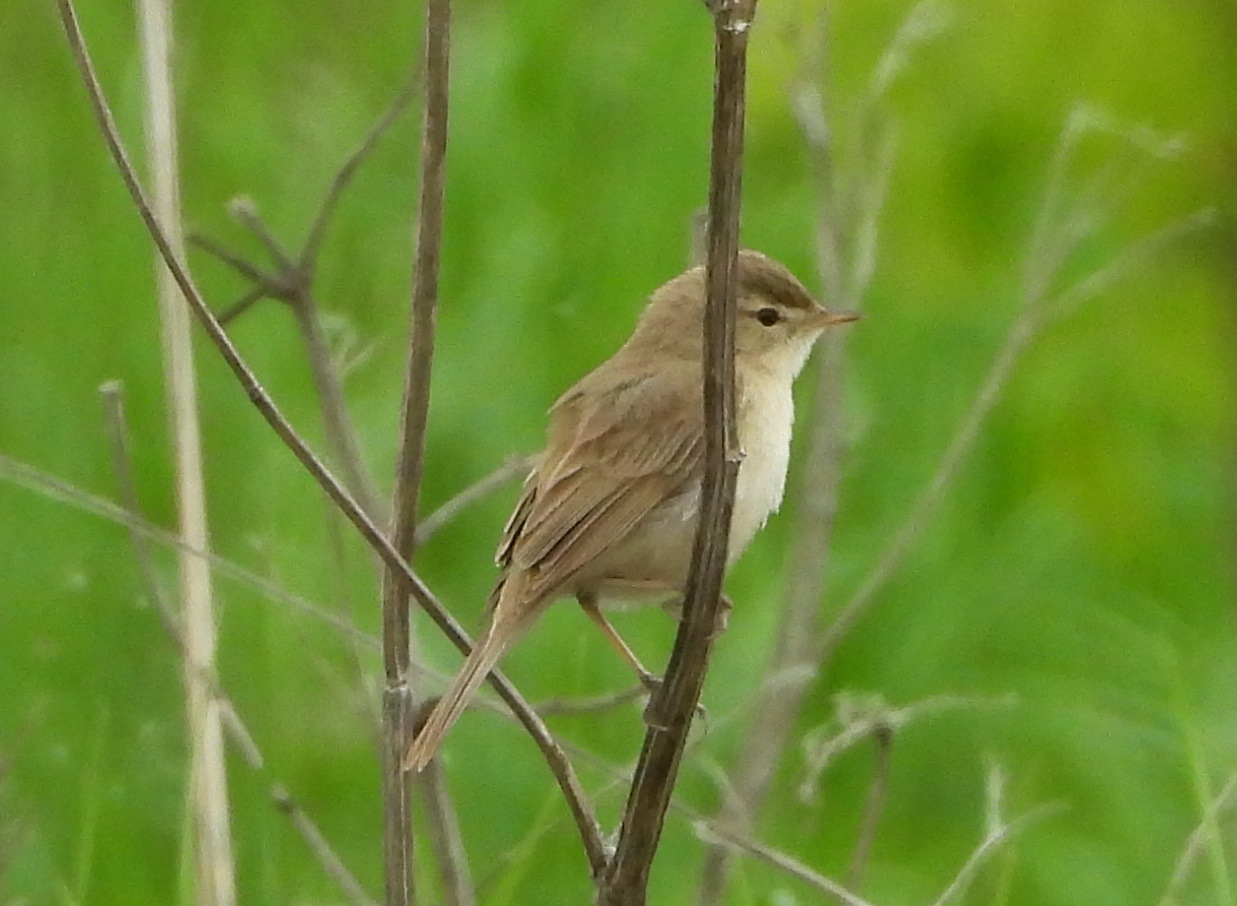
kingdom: Animalia
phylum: Chordata
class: Aves
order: Passeriformes
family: Acrocephalidae
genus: Iduna
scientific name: Iduna caligata
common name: Booted warbler
